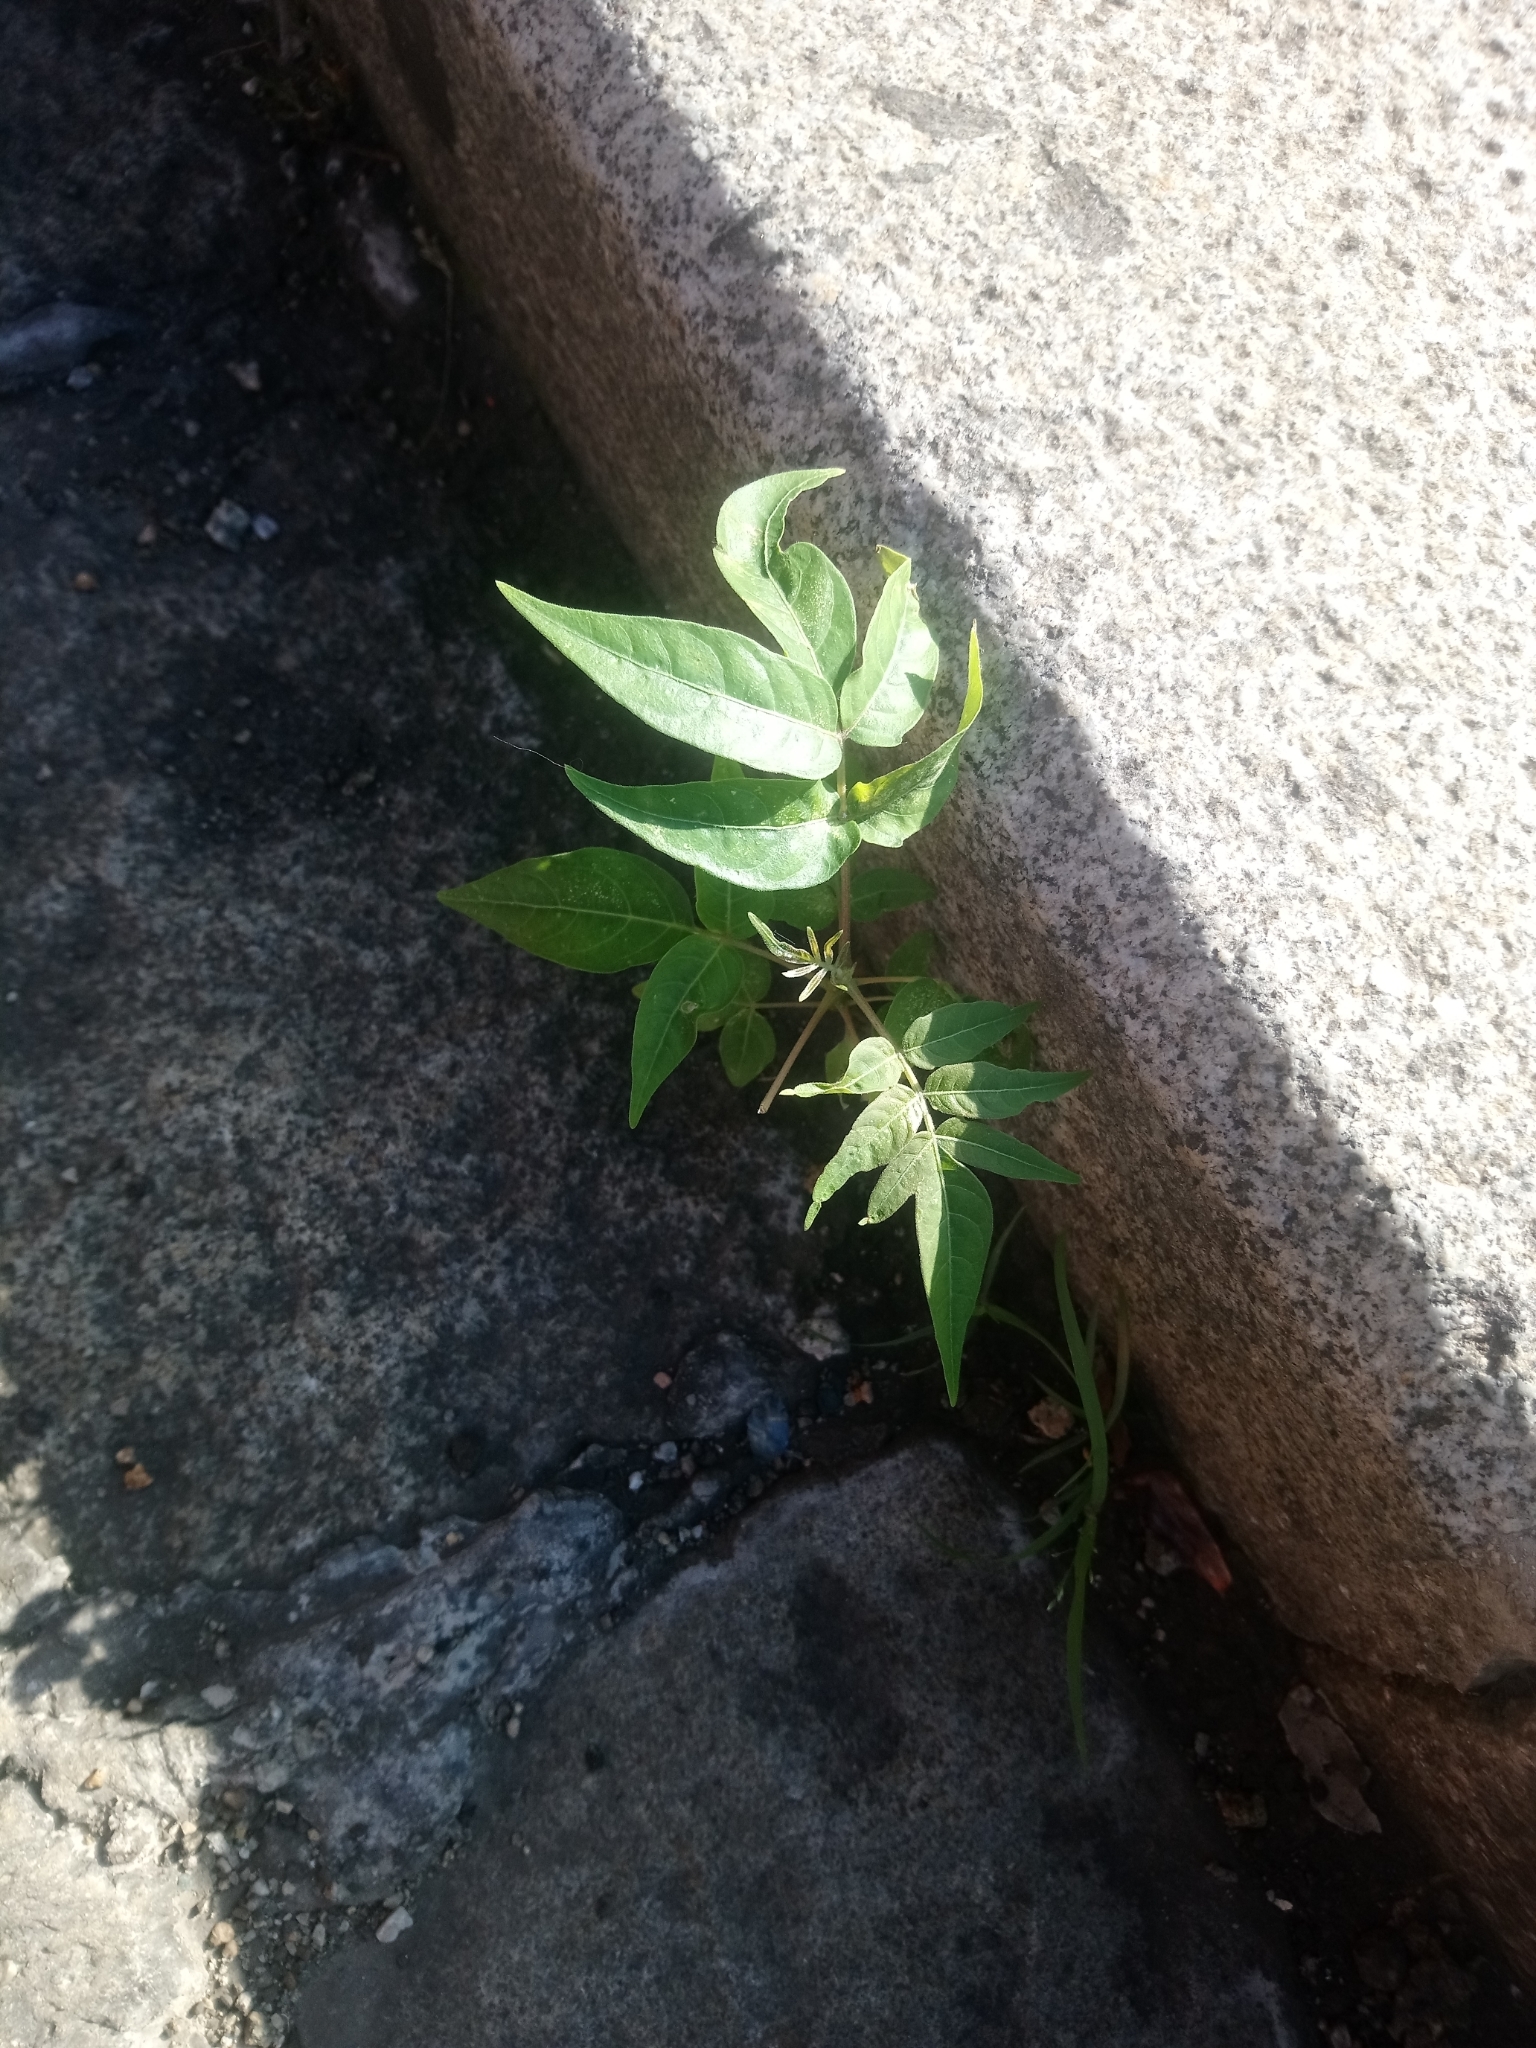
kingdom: Plantae
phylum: Tracheophyta
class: Magnoliopsida
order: Sapindales
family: Simaroubaceae
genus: Ailanthus
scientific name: Ailanthus altissima
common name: Tree-of-heaven
